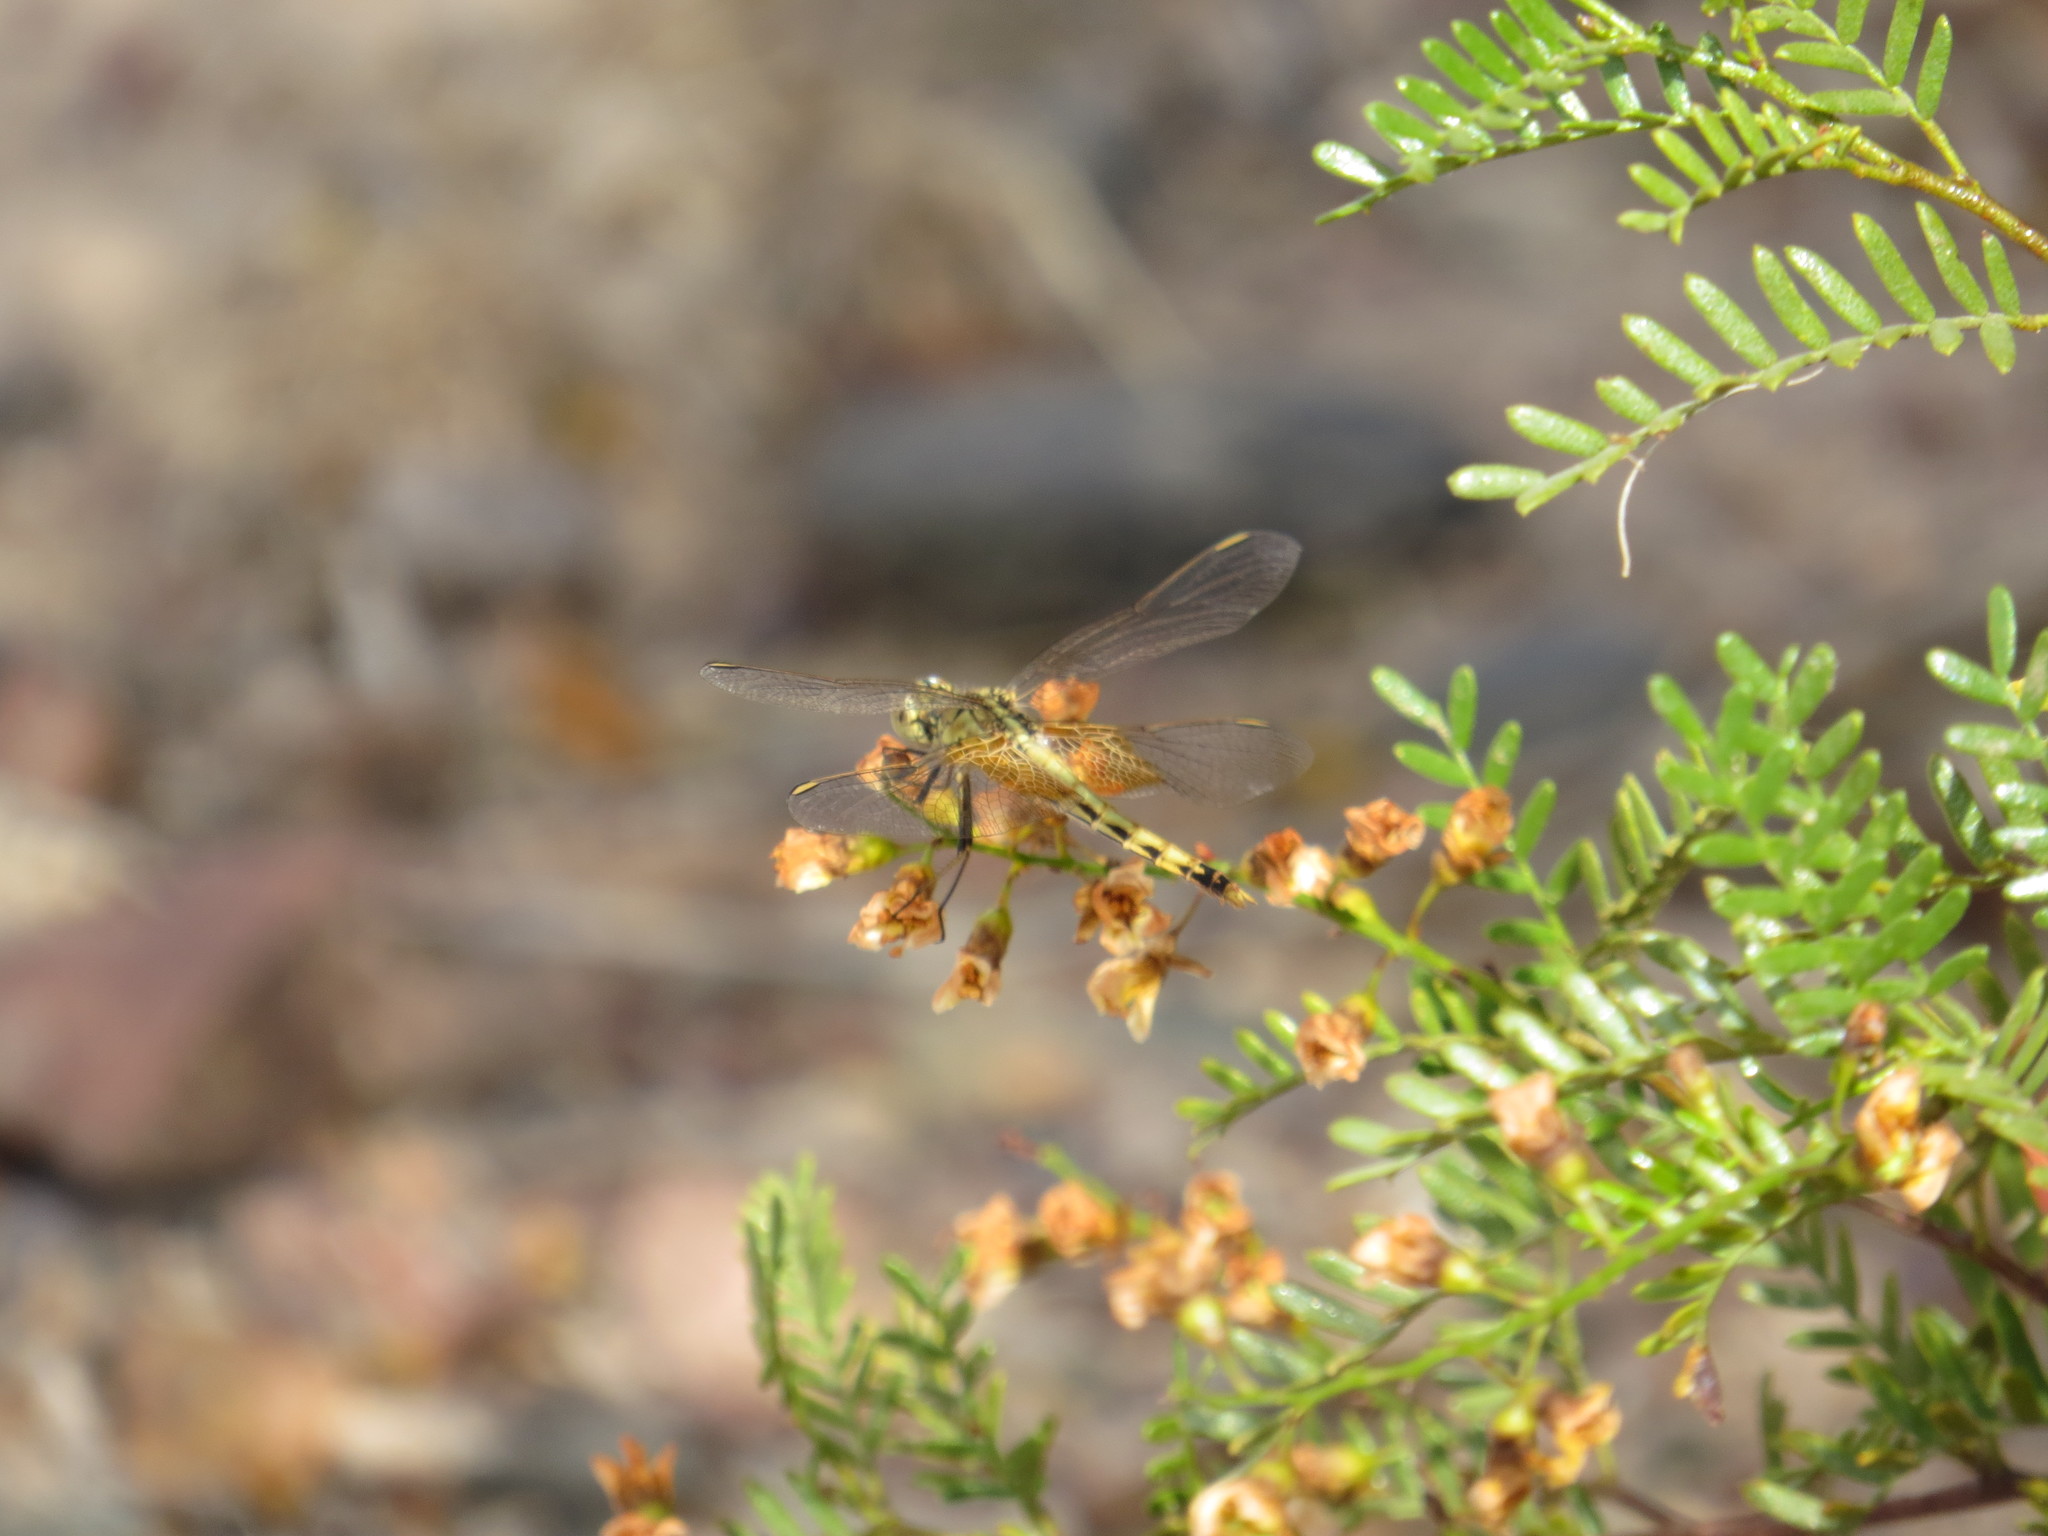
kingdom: Animalia
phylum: Arthropoda
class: Insecta
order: Odonata
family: Libellulidae
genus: Erythrodiplax
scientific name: Erythrodiplax corallina
